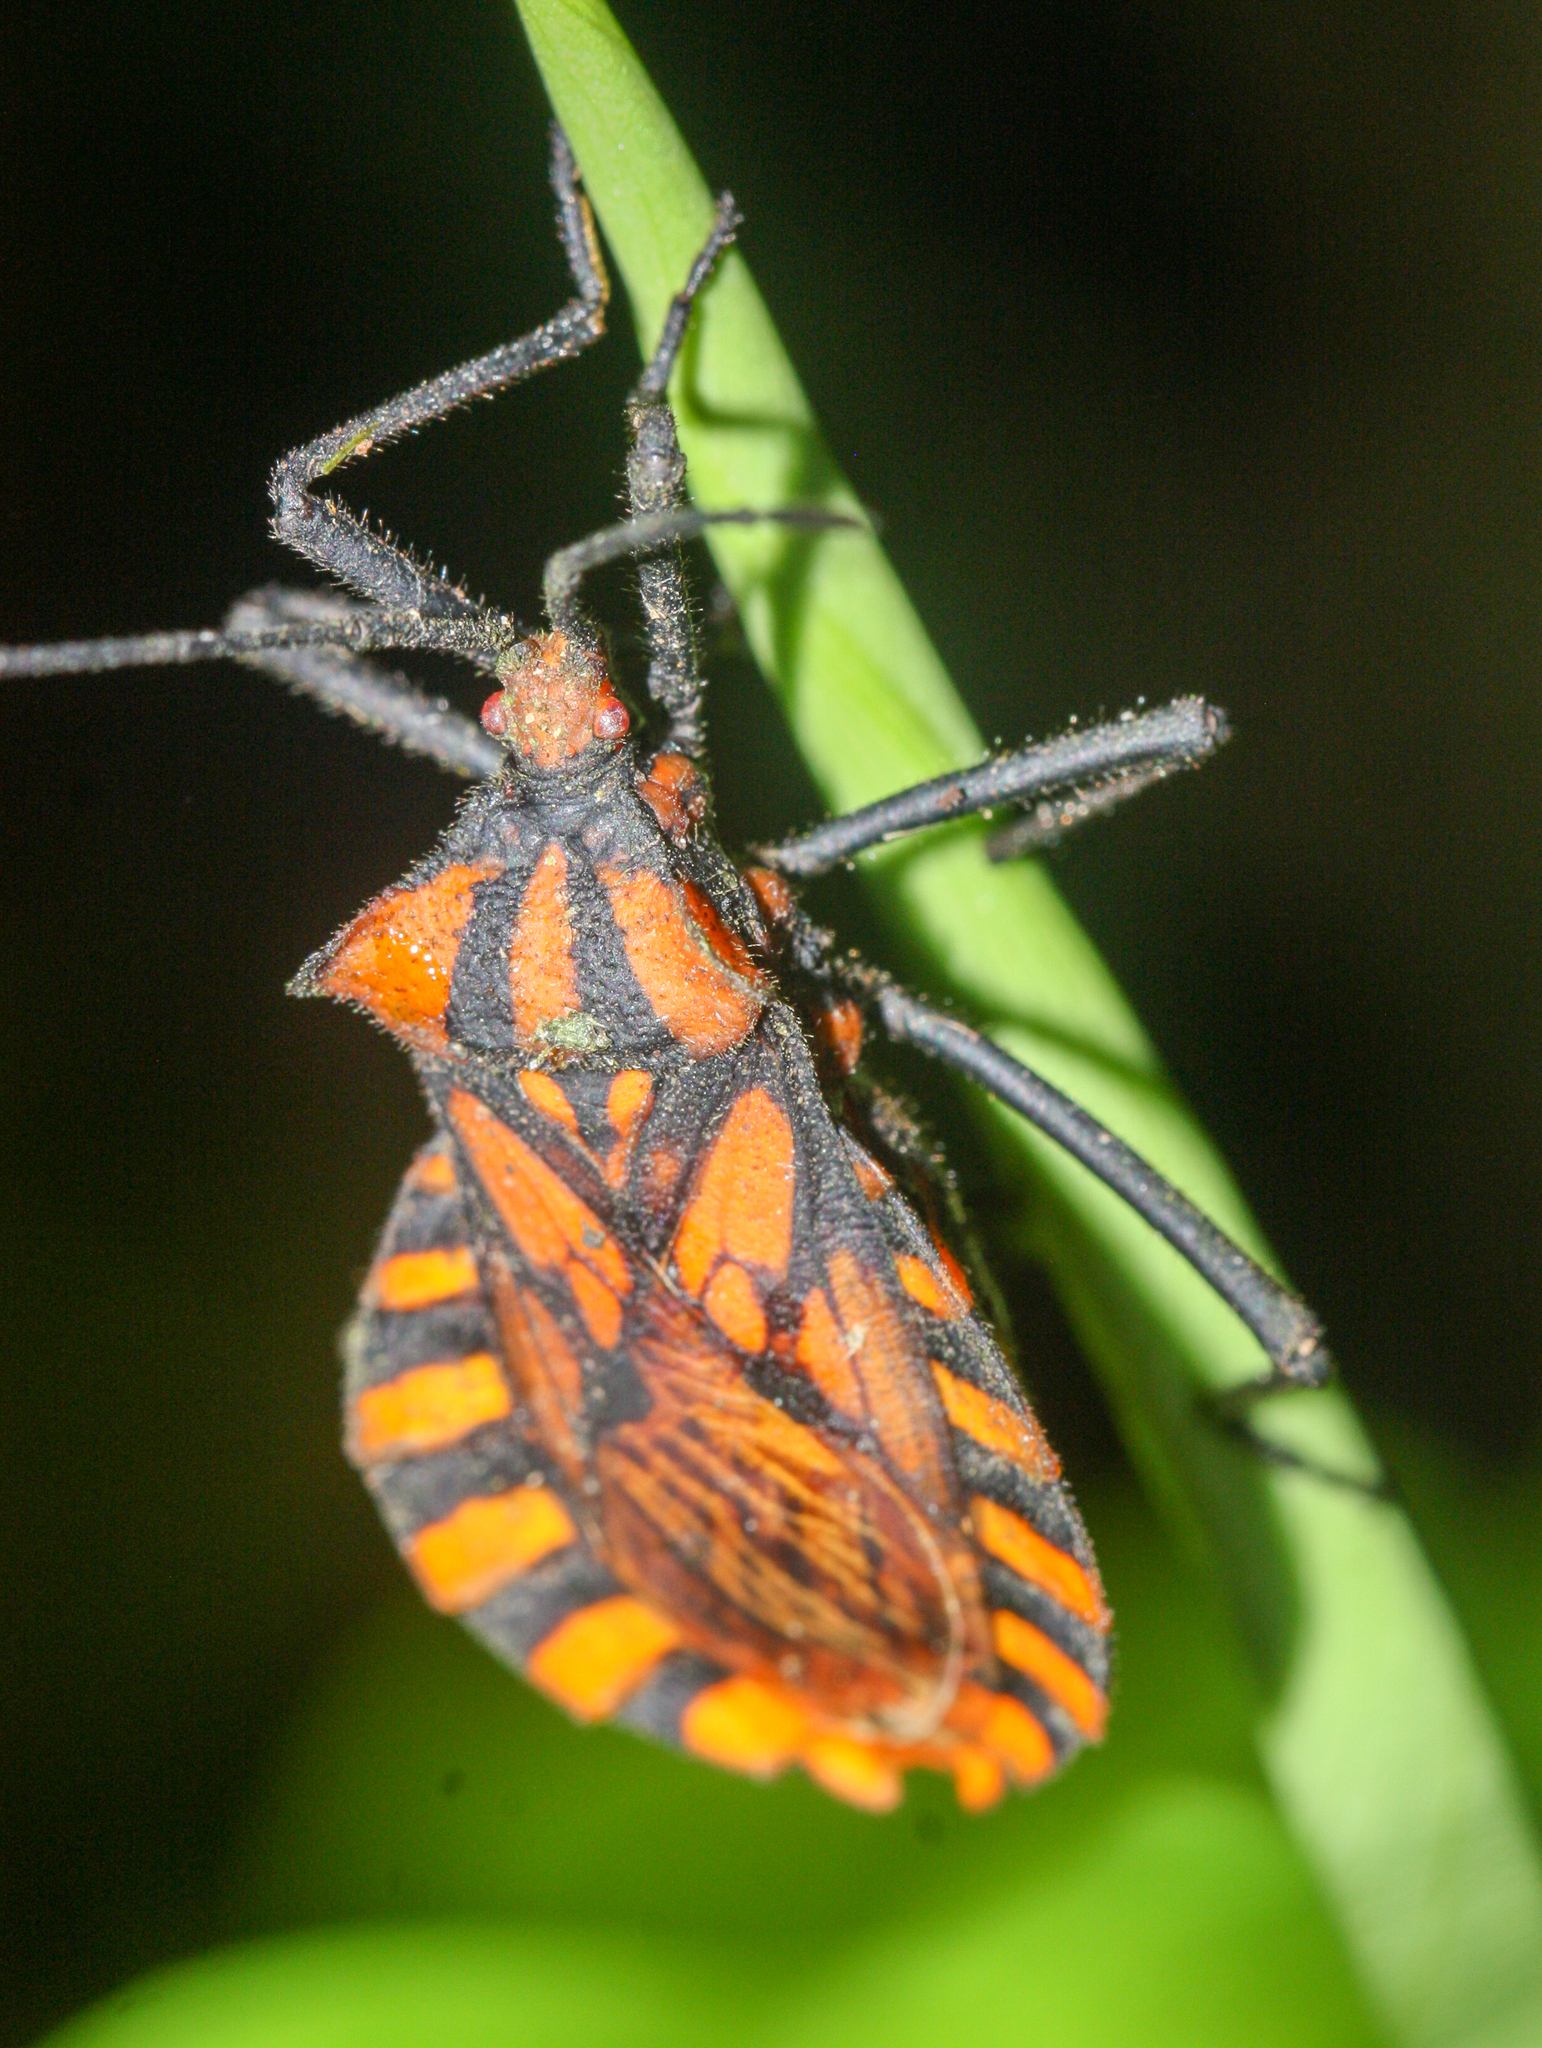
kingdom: Animalia
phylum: Arthropoda
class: Insecta
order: Hemiptera
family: Coreidae
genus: Spartocera
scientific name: Spartocera pantomima
